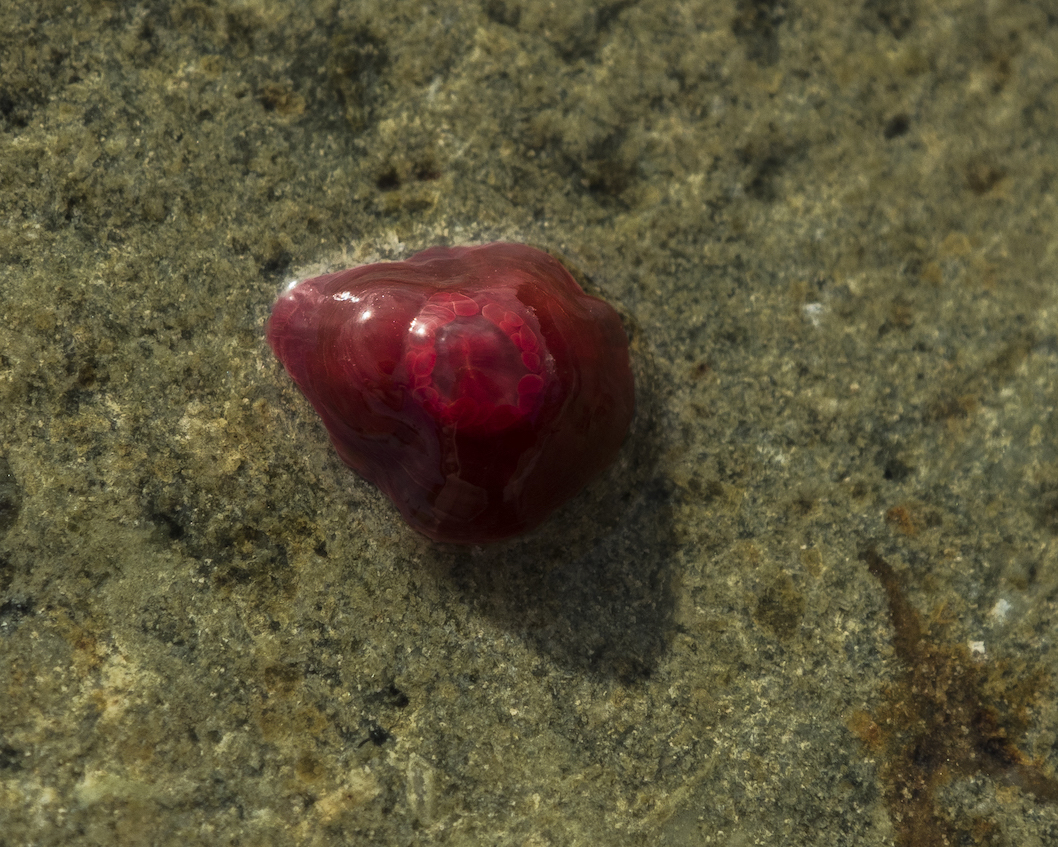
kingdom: Animalia
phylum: Cnidaria
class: Anthozoa
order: Actiniaria
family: Actiniidae
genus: Actinia
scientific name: Actinia tenebrosa
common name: Waratah anemone
